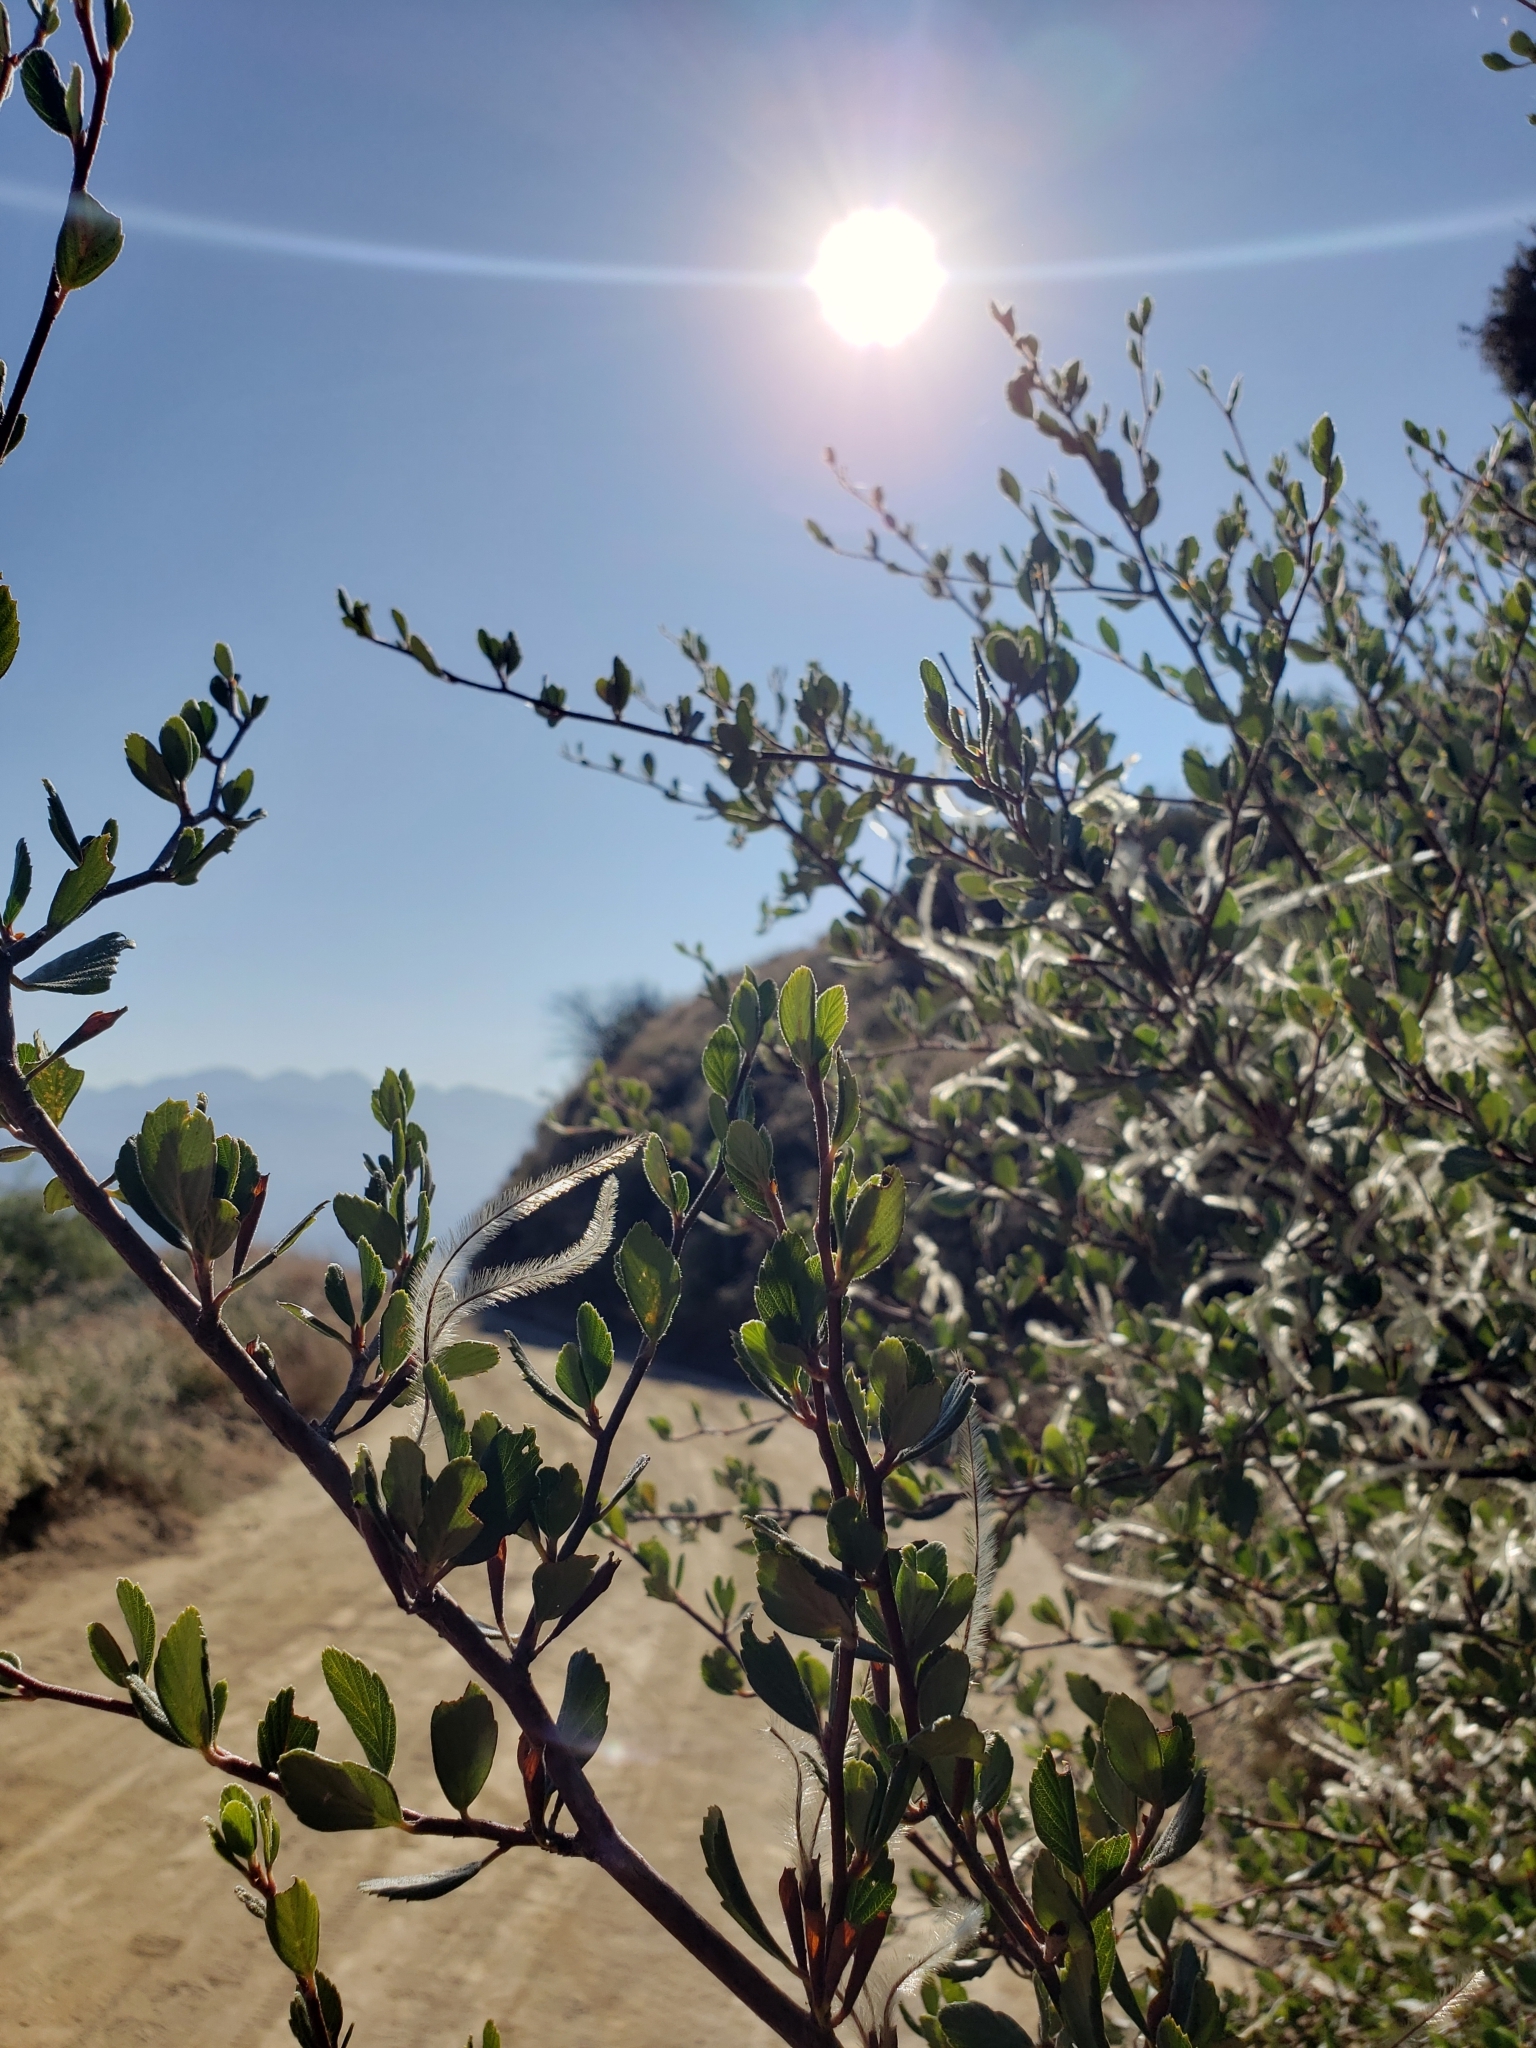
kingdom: Plantae
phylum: Tracheophyta
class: Magnoliopsida
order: Rosales
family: Rosaceae
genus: Cercocarpus
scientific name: Cercocarpus betuloides
